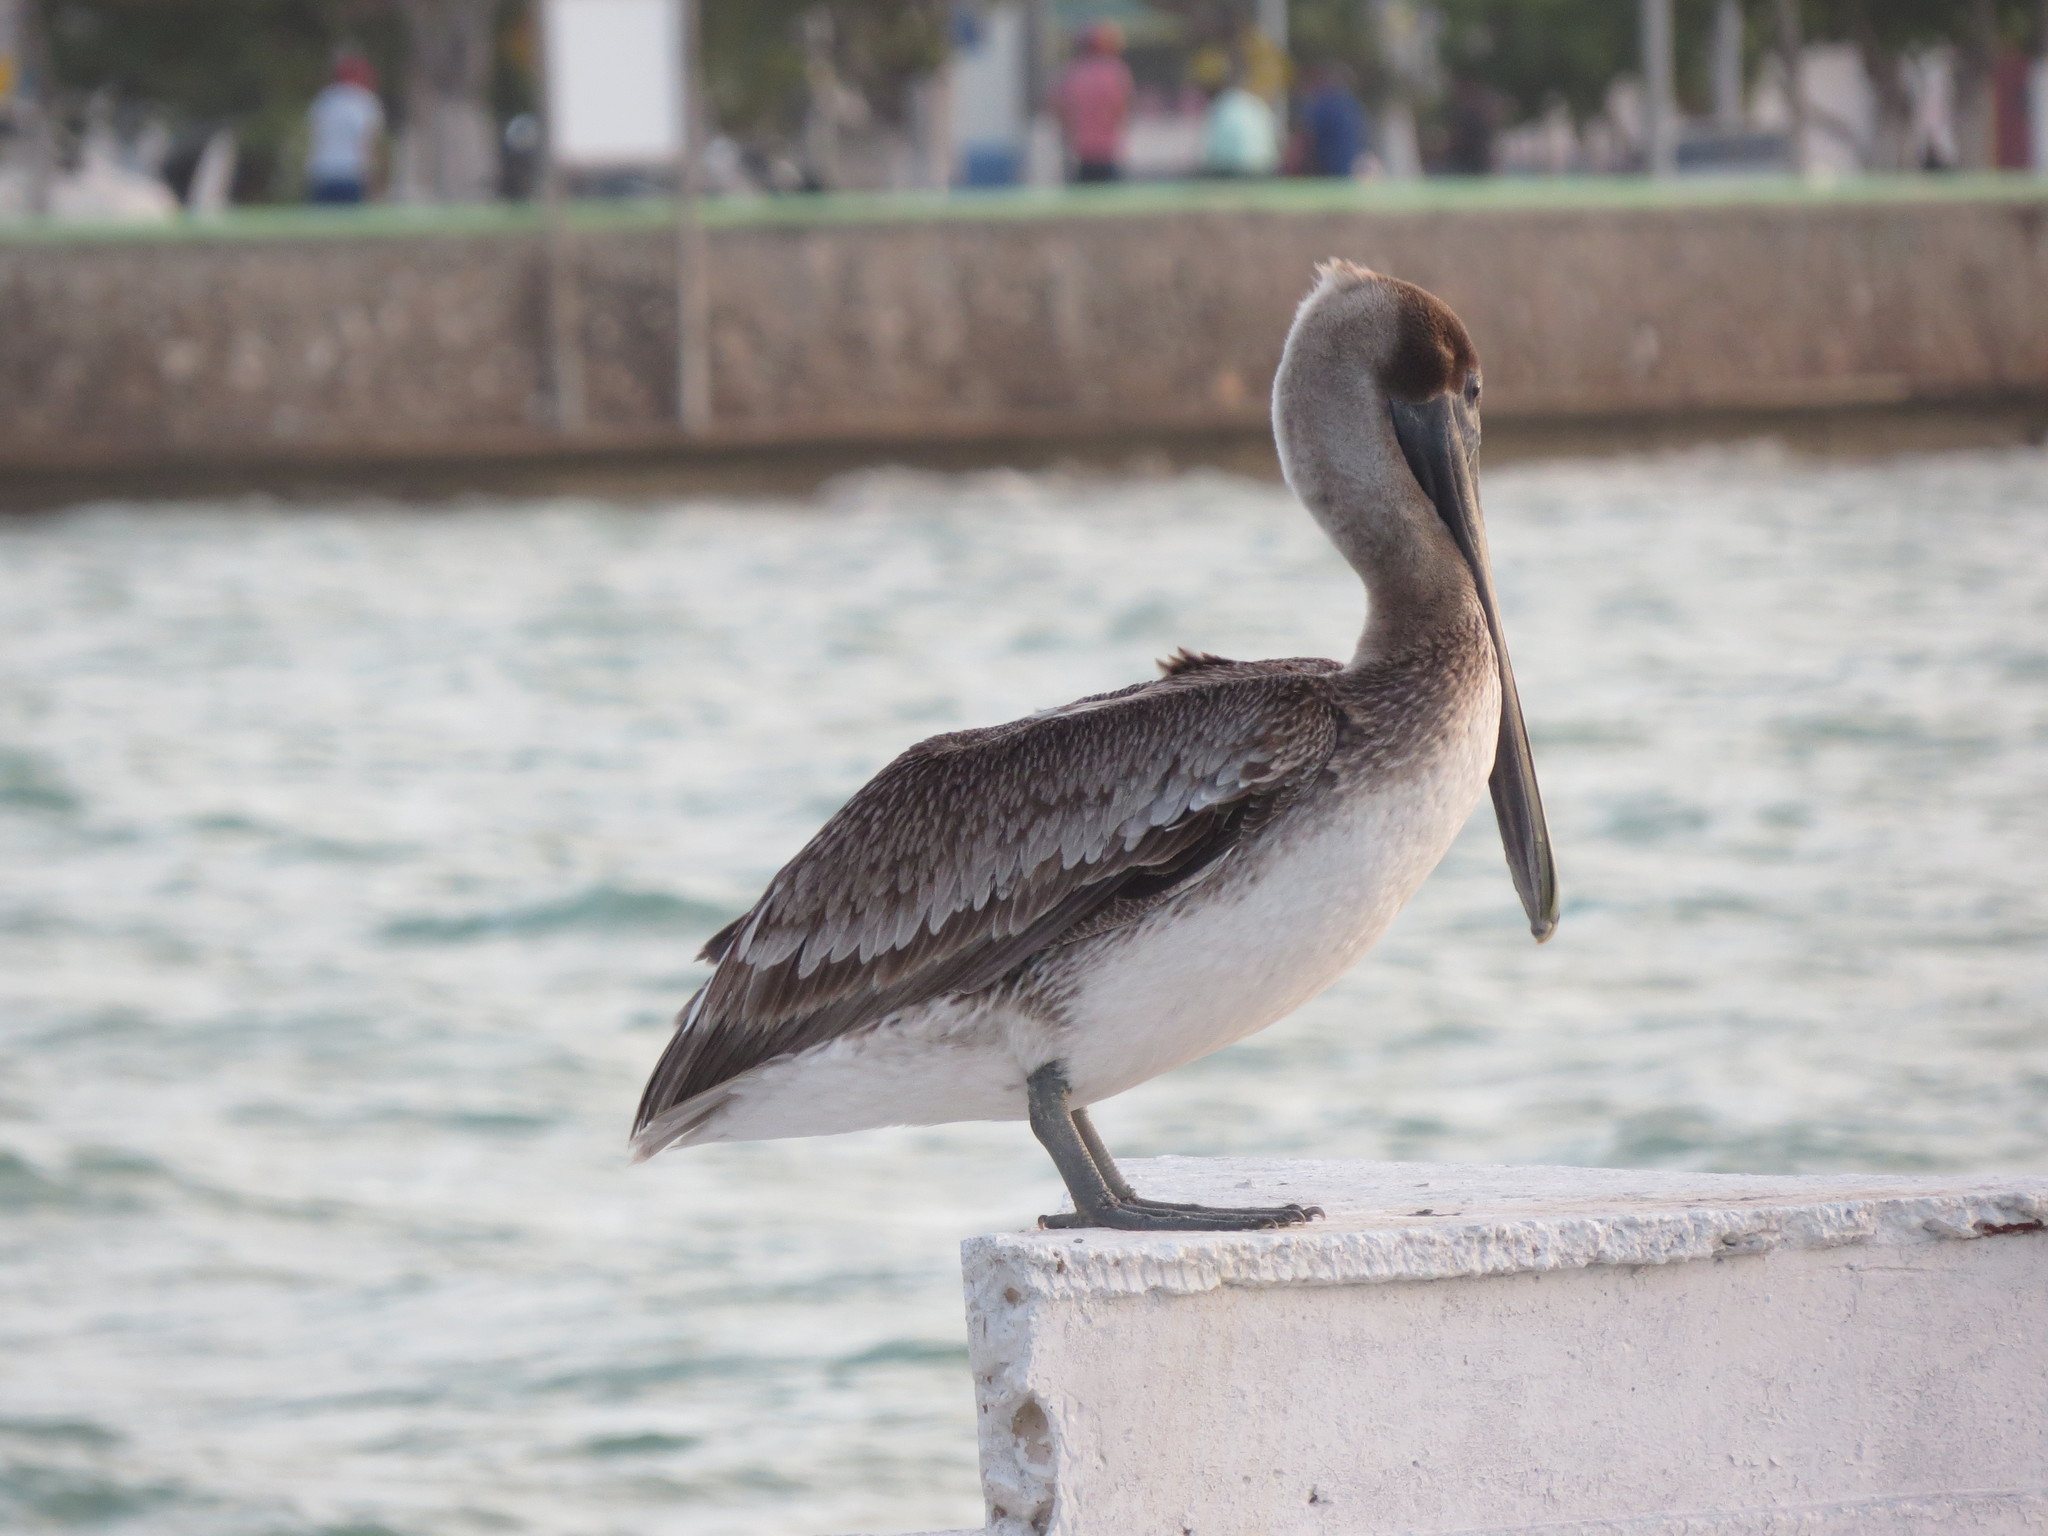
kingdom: Animalia
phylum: Chordata
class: Aves
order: Pelecaniformes
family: Pelecanidae
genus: Pelecanus
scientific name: Pelecanus occidentalis
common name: Brown pelican
